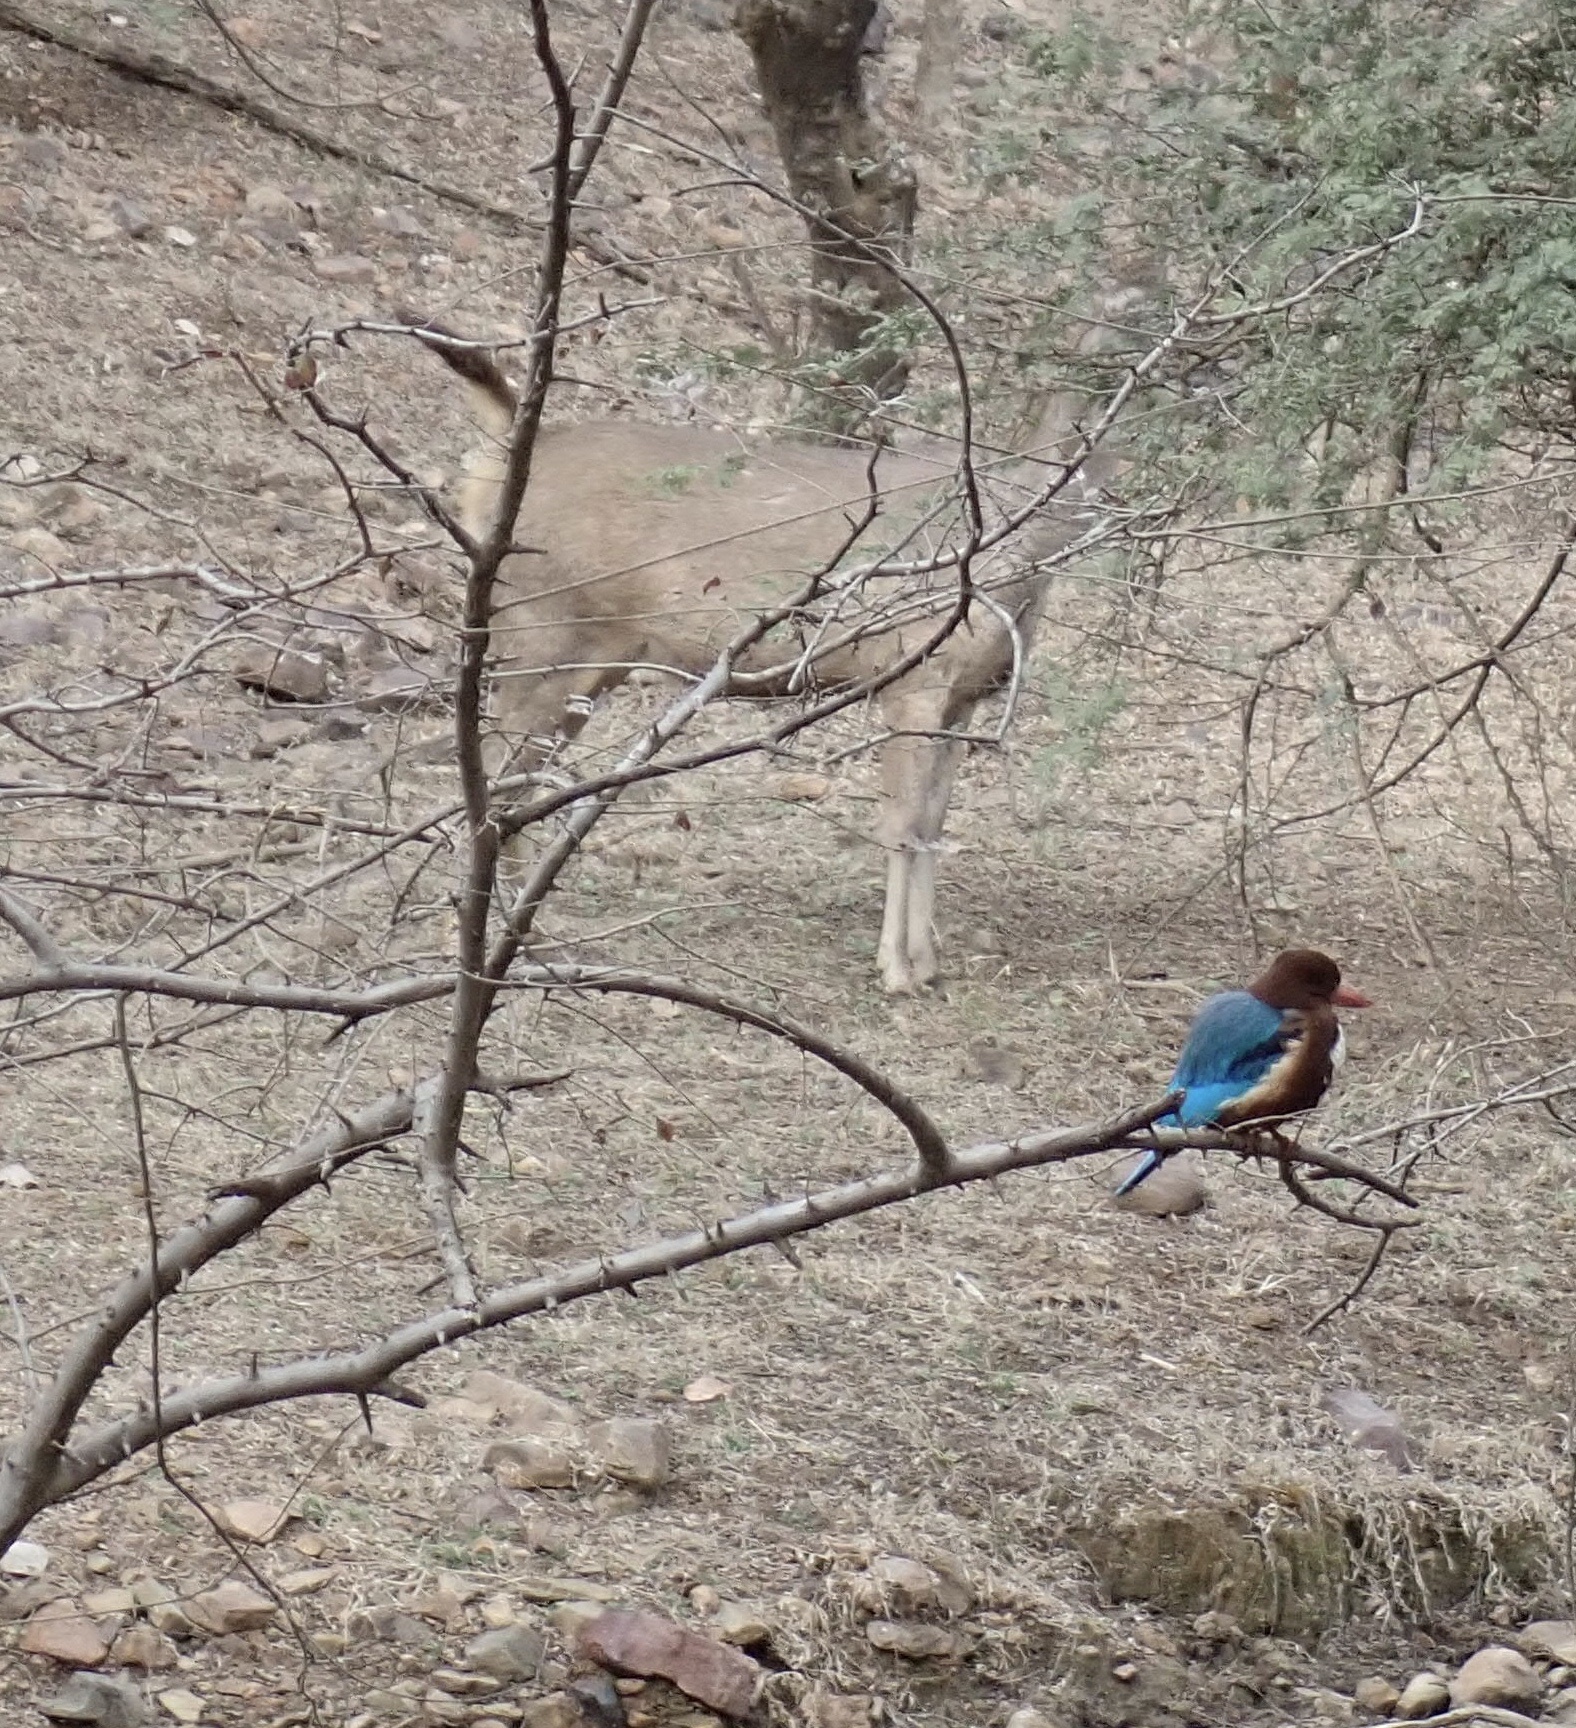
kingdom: Animalia
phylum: Chordata
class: Aves
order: Coraciiformes
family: Alcedinidae
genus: Halcyon
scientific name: Halcyon smyrnensis
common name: White-throated kingfisher
